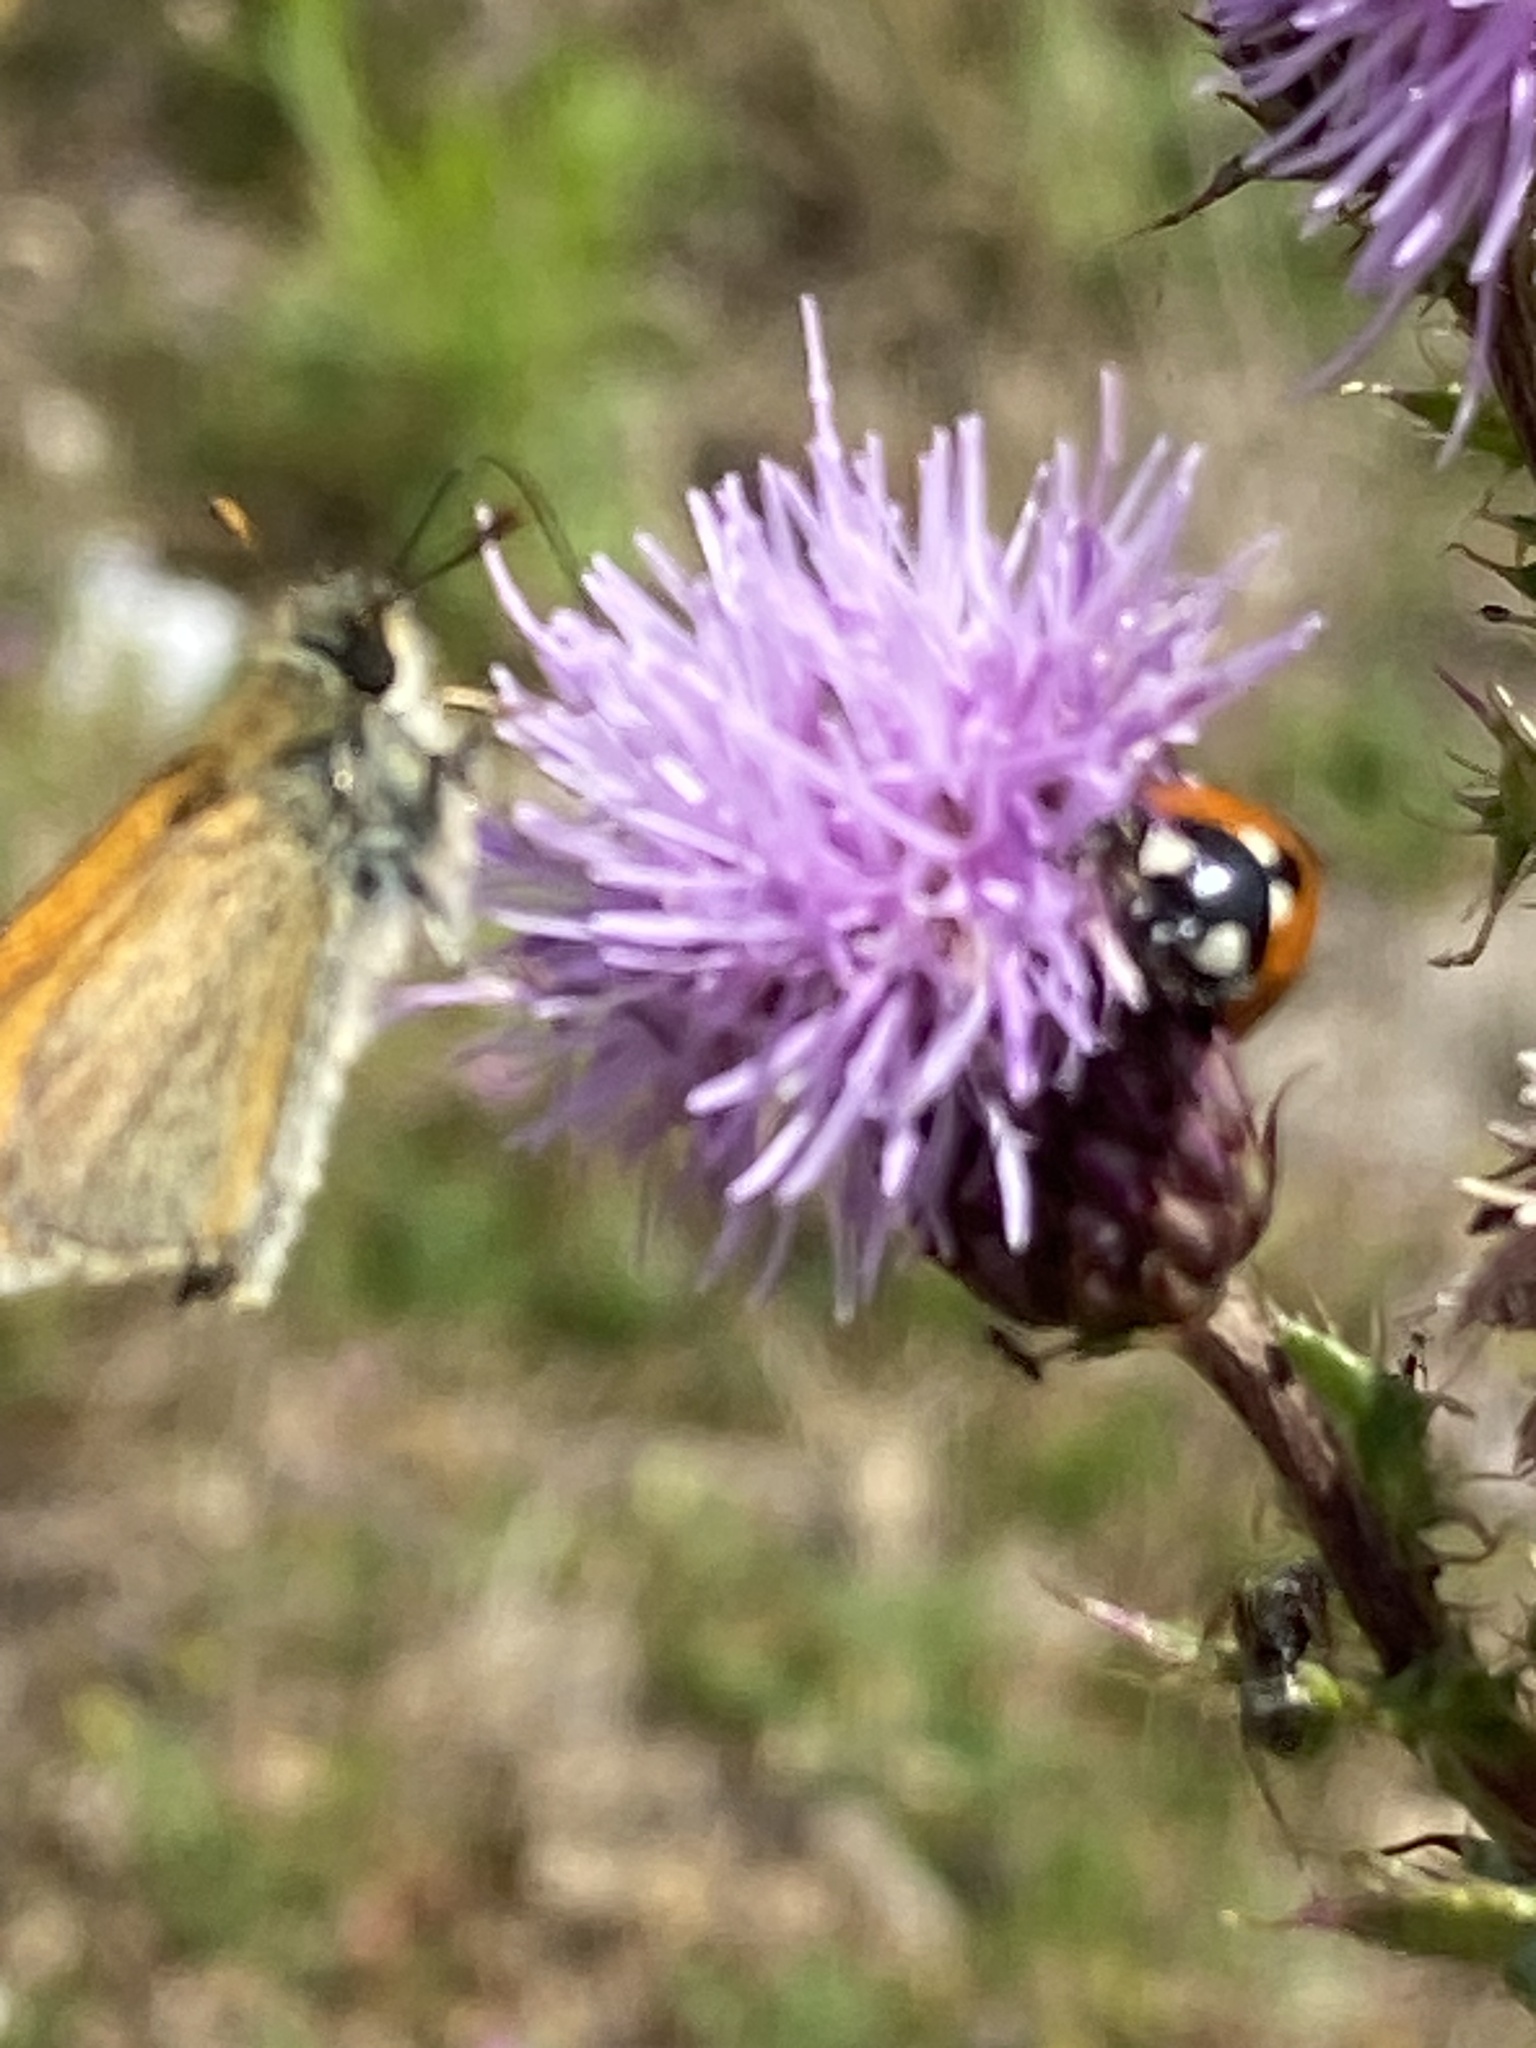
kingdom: Animalia
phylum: Arthropoda
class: Insecta
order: Lepidoptera
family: Hesperiidae
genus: Thymelicus
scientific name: Thymelicus sylvestris
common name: Small skipper
